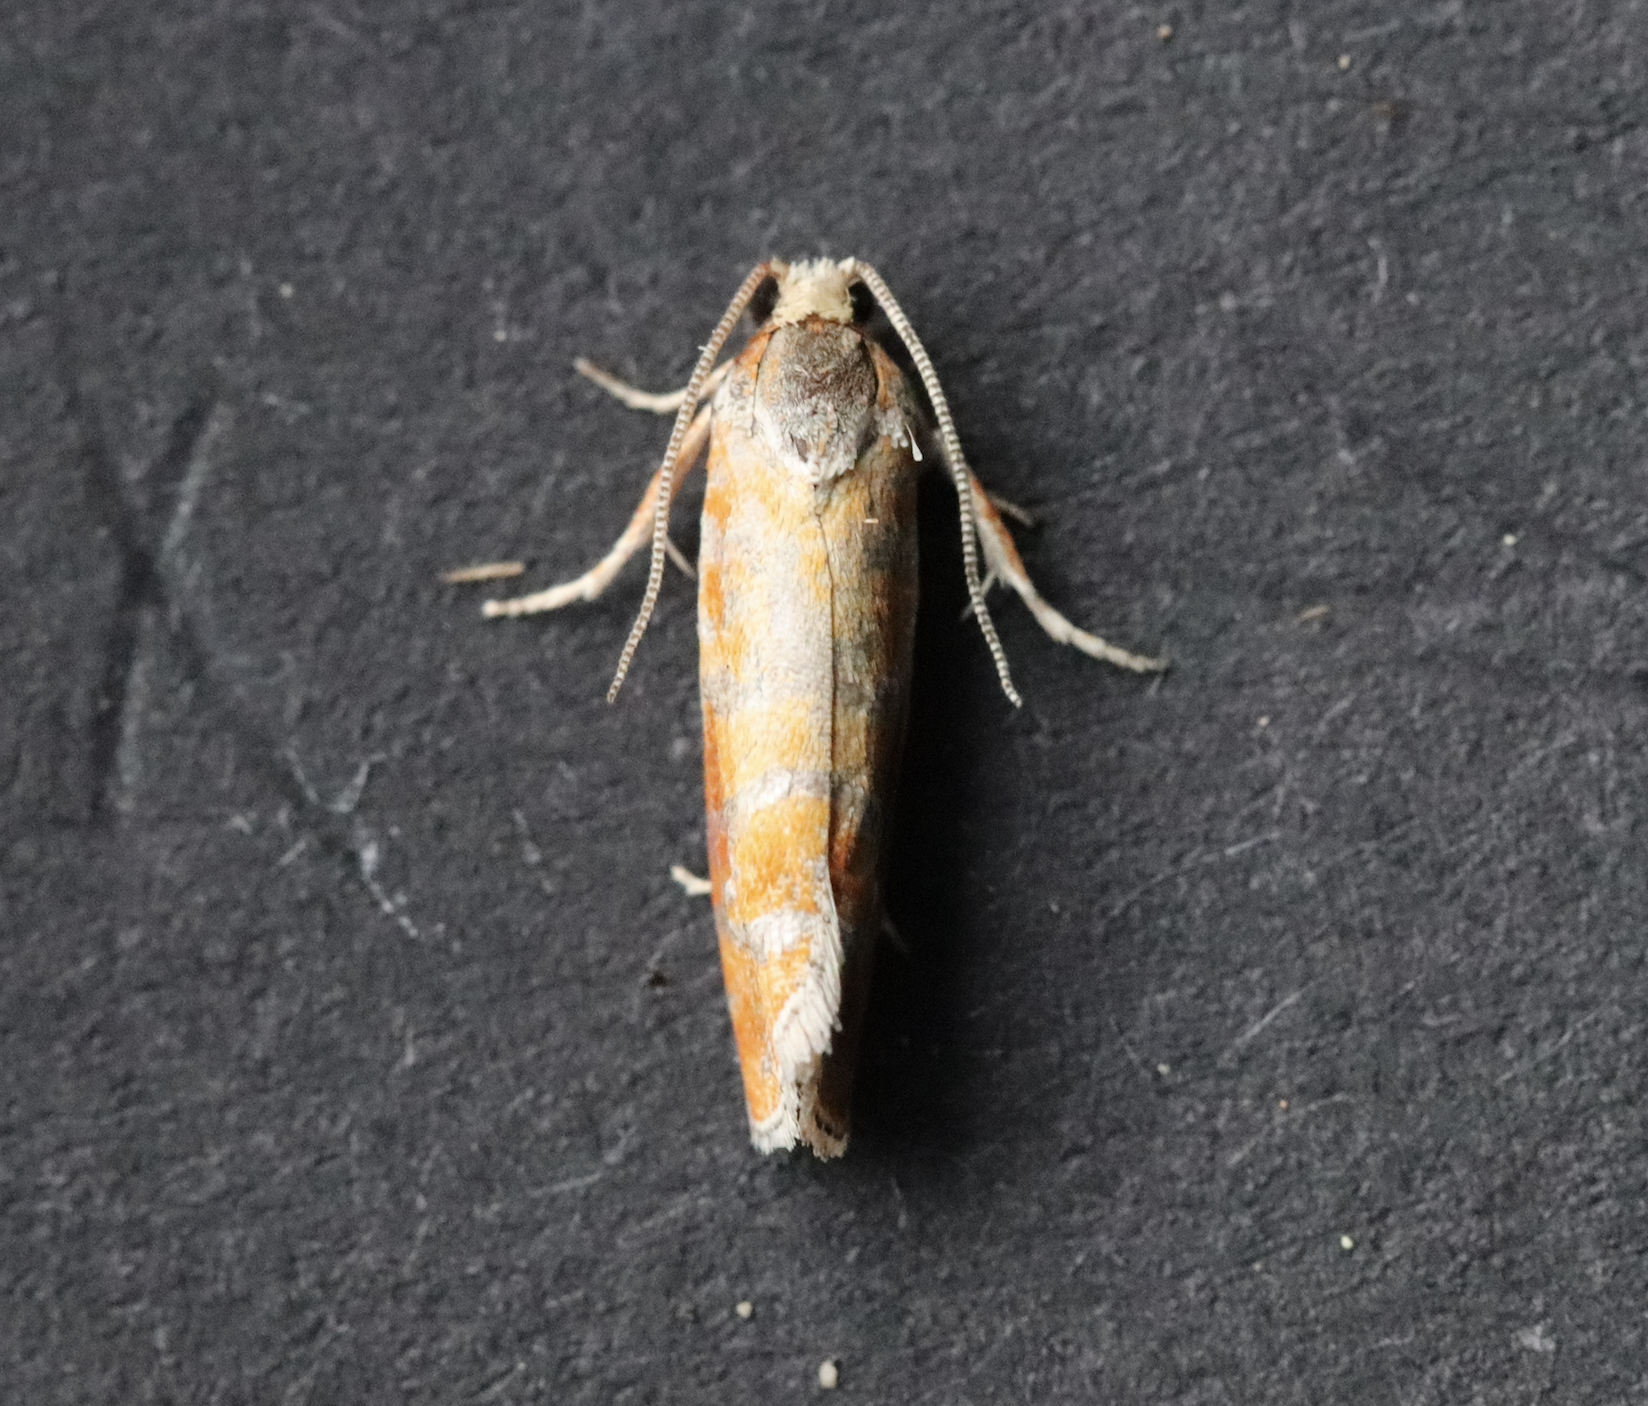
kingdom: Animalia
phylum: Arthropoda
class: Insecta
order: Lepidoptera
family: Tortricidae
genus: Rhyacionia
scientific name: Rhyacionia buoliana
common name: European pine shoot moth
